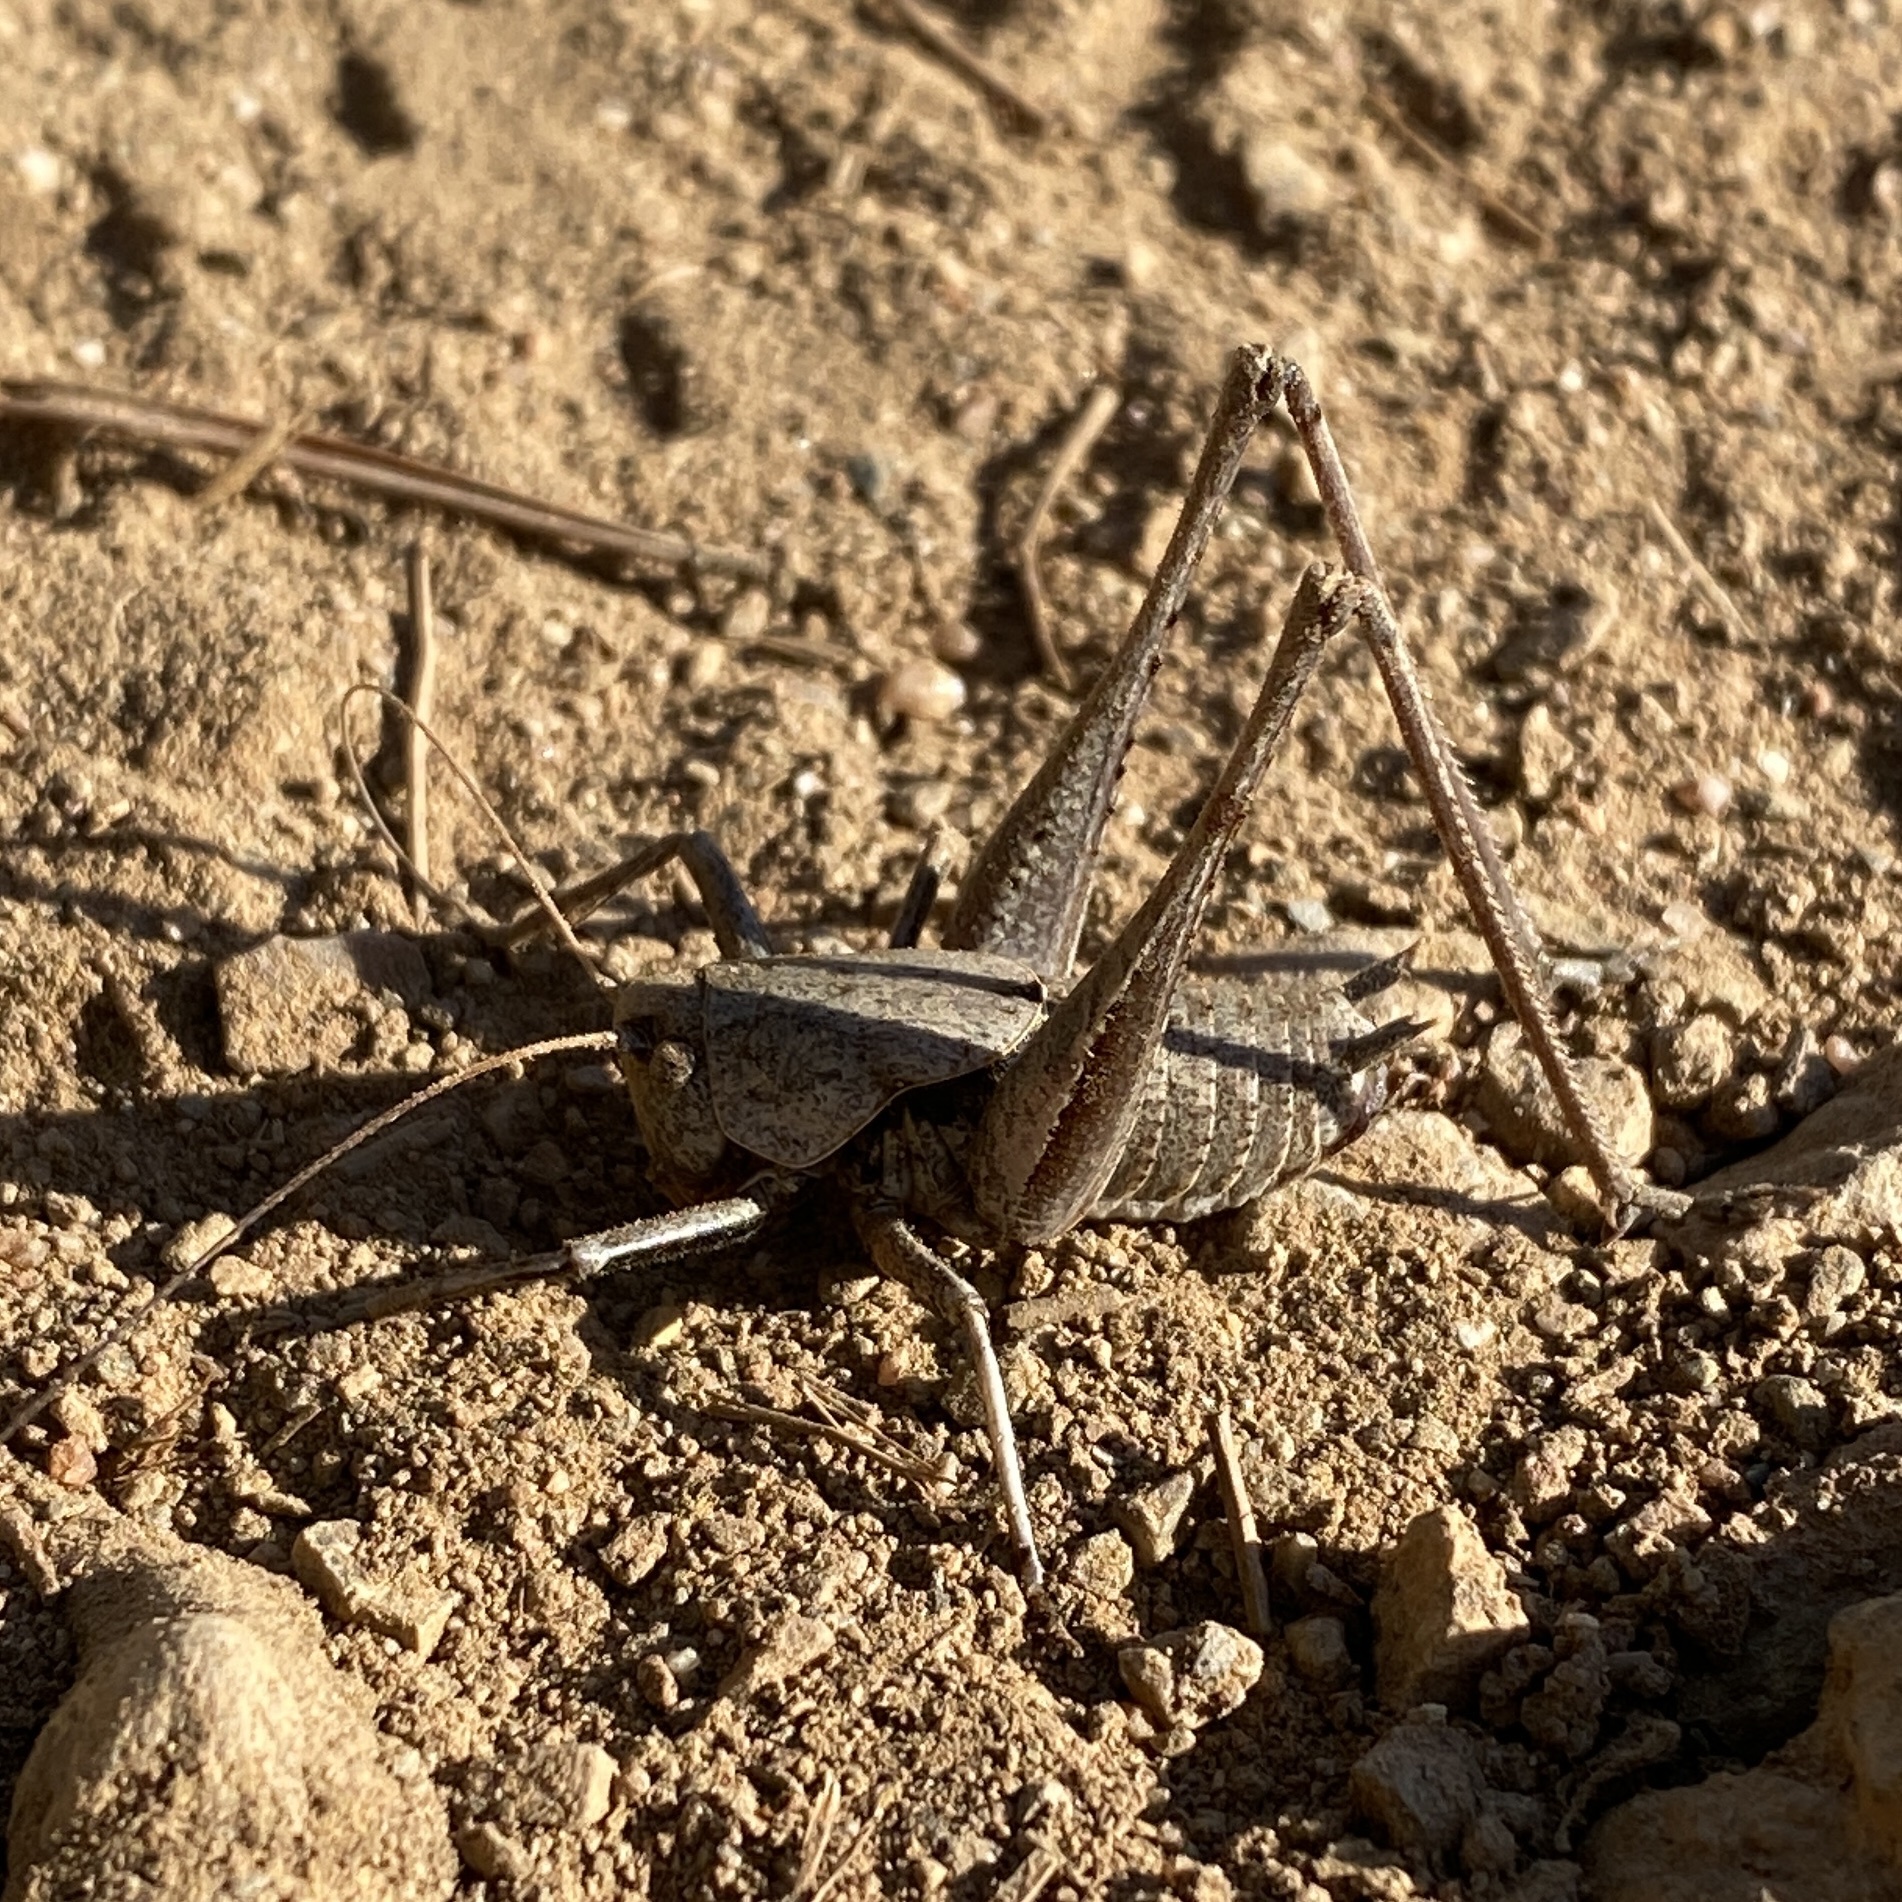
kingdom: Animalia
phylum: Arthropoda
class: Insecta
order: Orthoptera
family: Tettigoniidae
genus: Thyreonotus
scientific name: Thyreonotus corsicus
